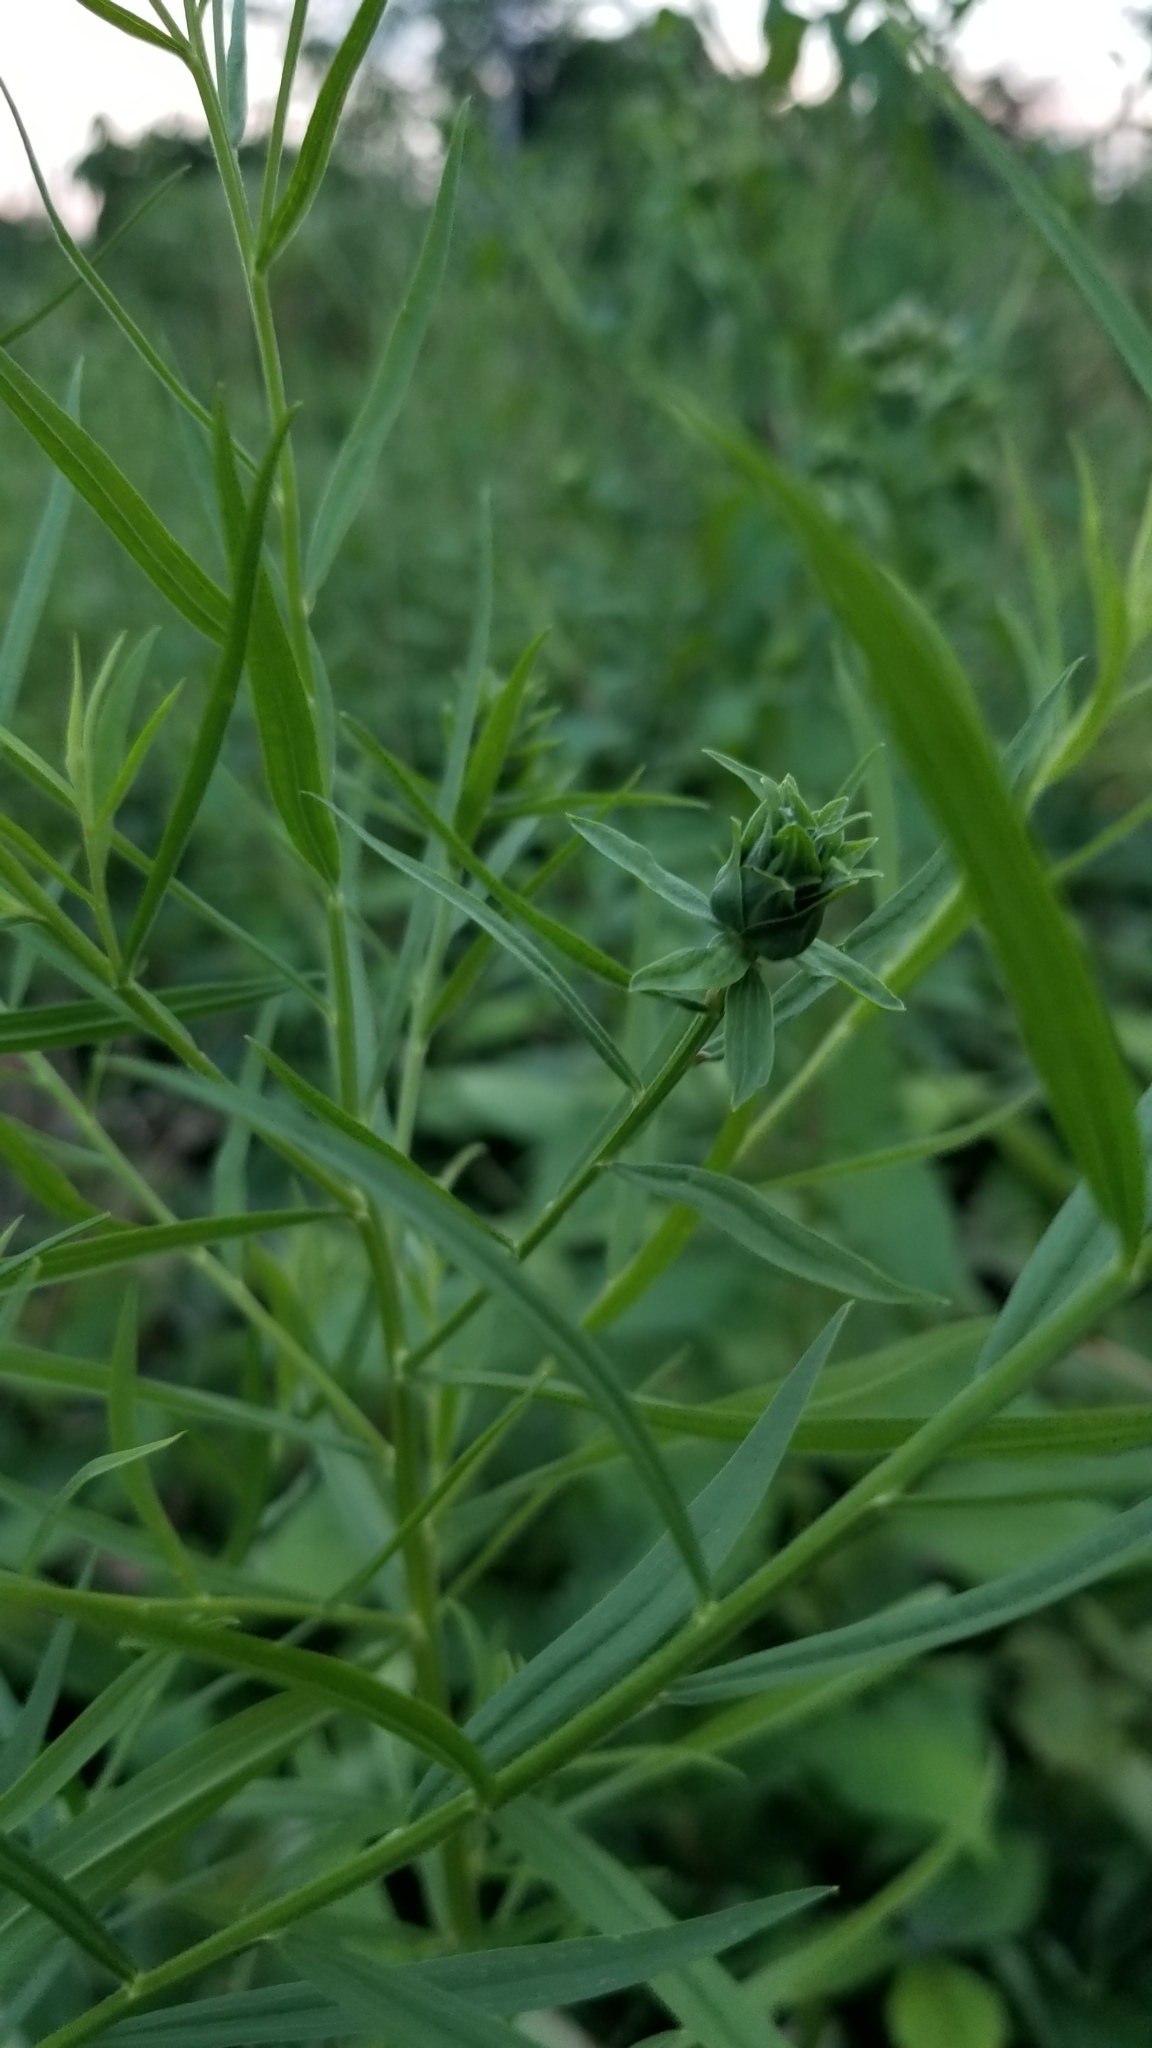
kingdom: Animalia
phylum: Arthropoda
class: Insecta
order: Diptera
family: Cecidomyiidae
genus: Asphondylia
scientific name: Asphondylia pseudorosa
